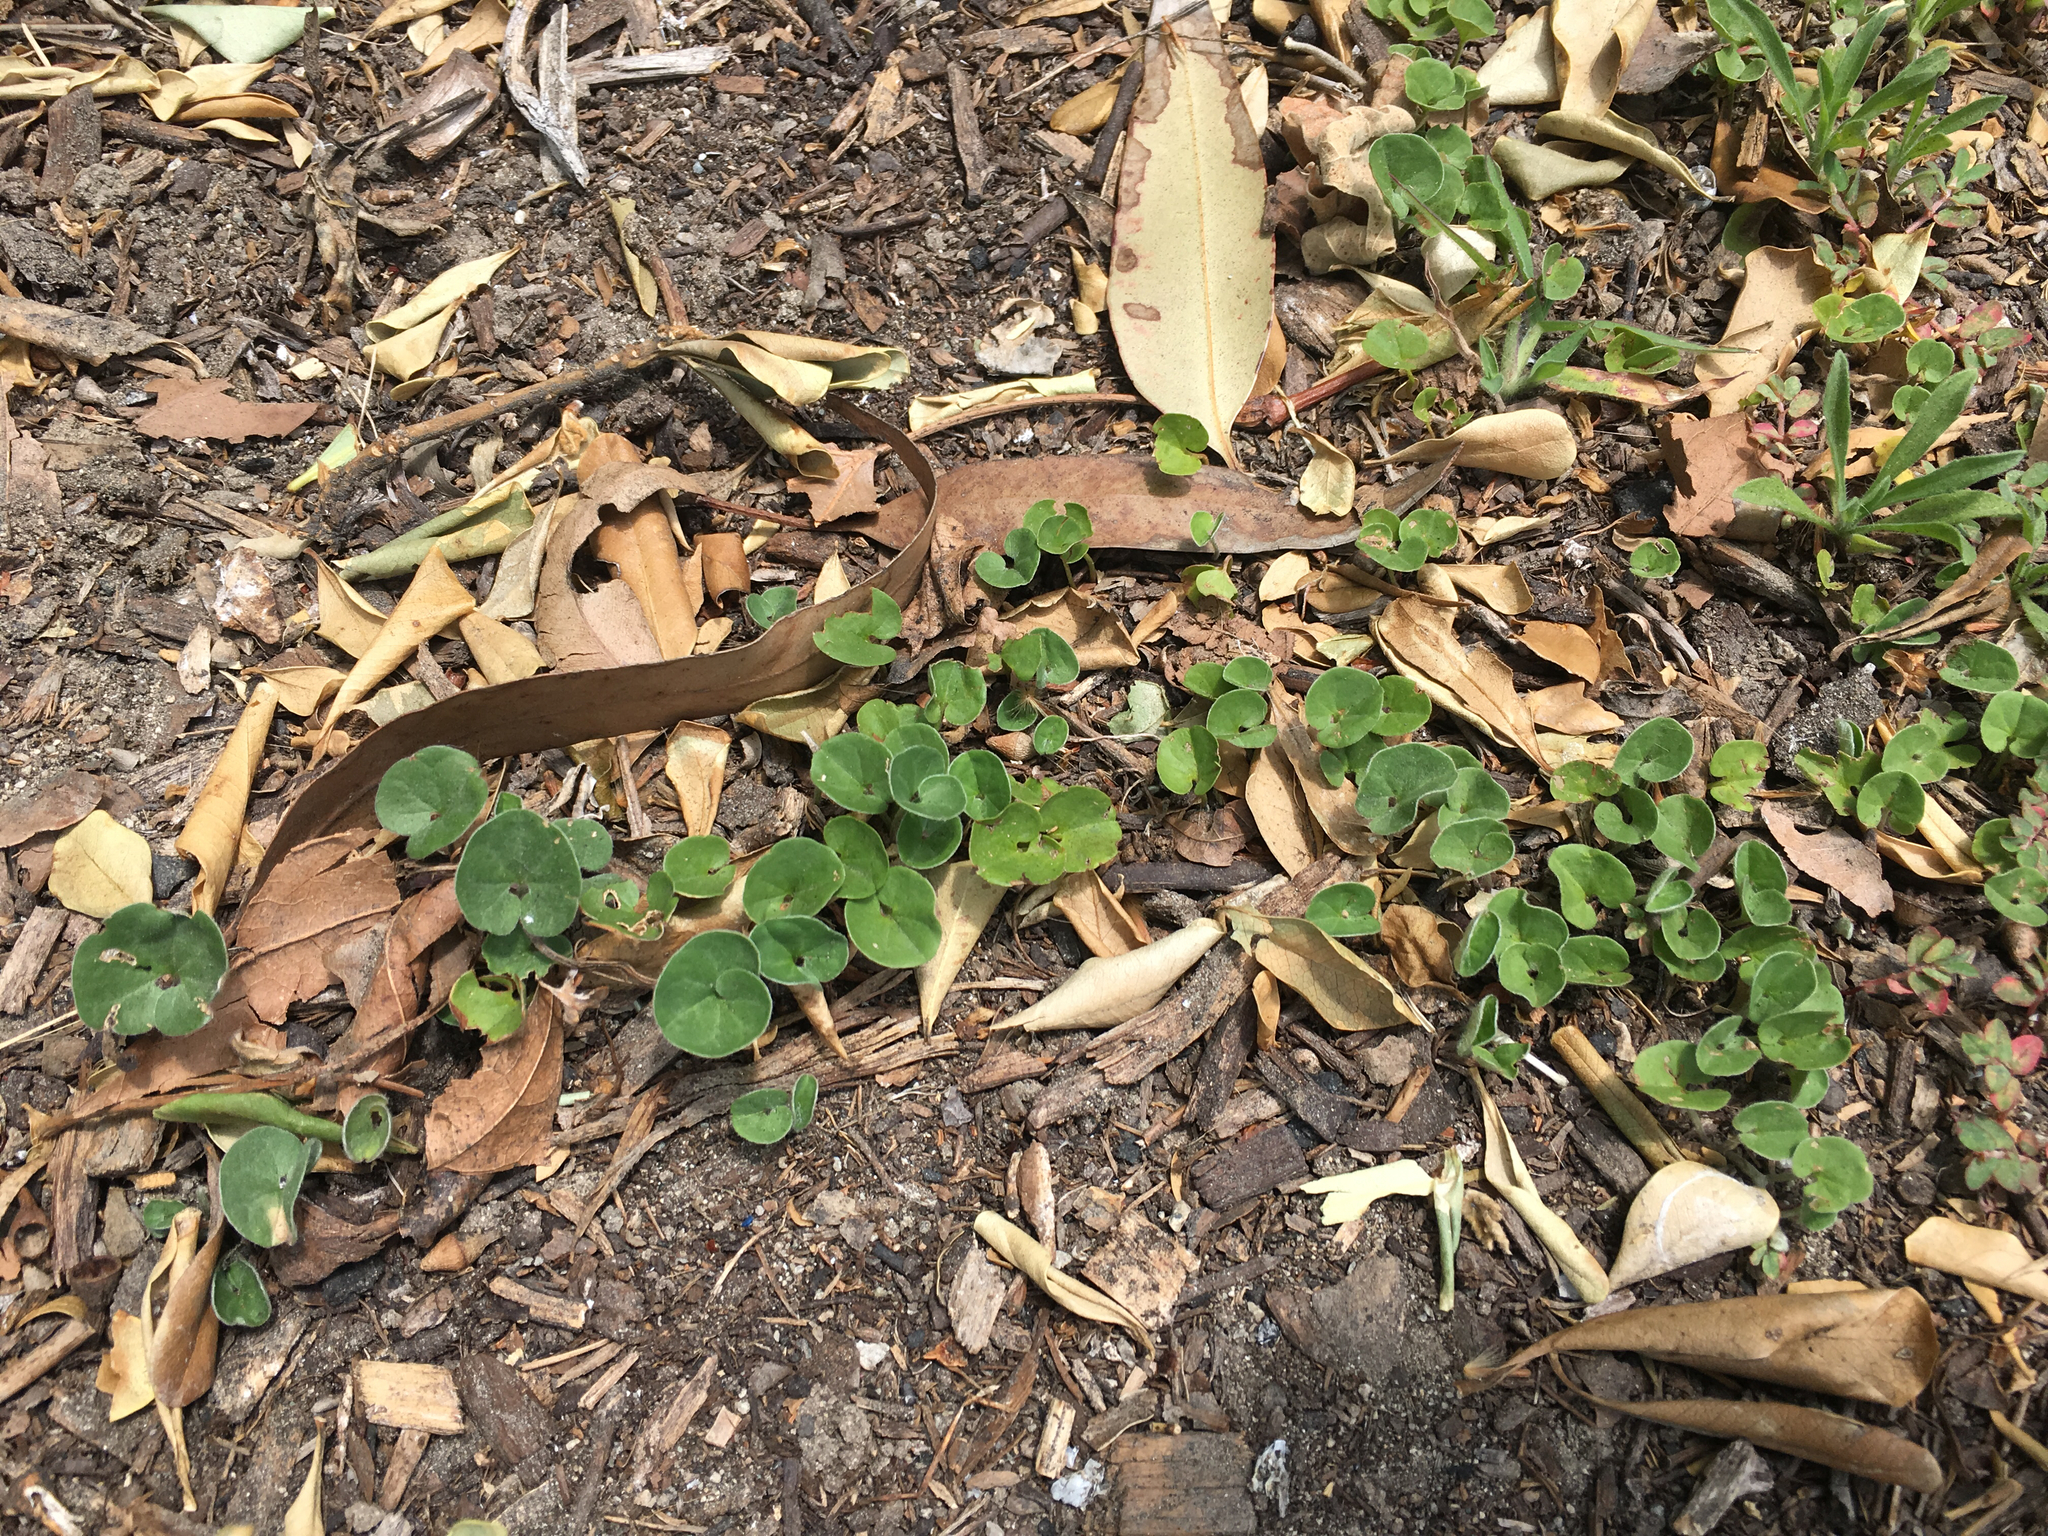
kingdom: Plantae
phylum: Tracheophyta
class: Magnoliopsida
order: Solanales
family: Convolvulaceae
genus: Dichondra
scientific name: Dichondra micrantha
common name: Kidneyweed
